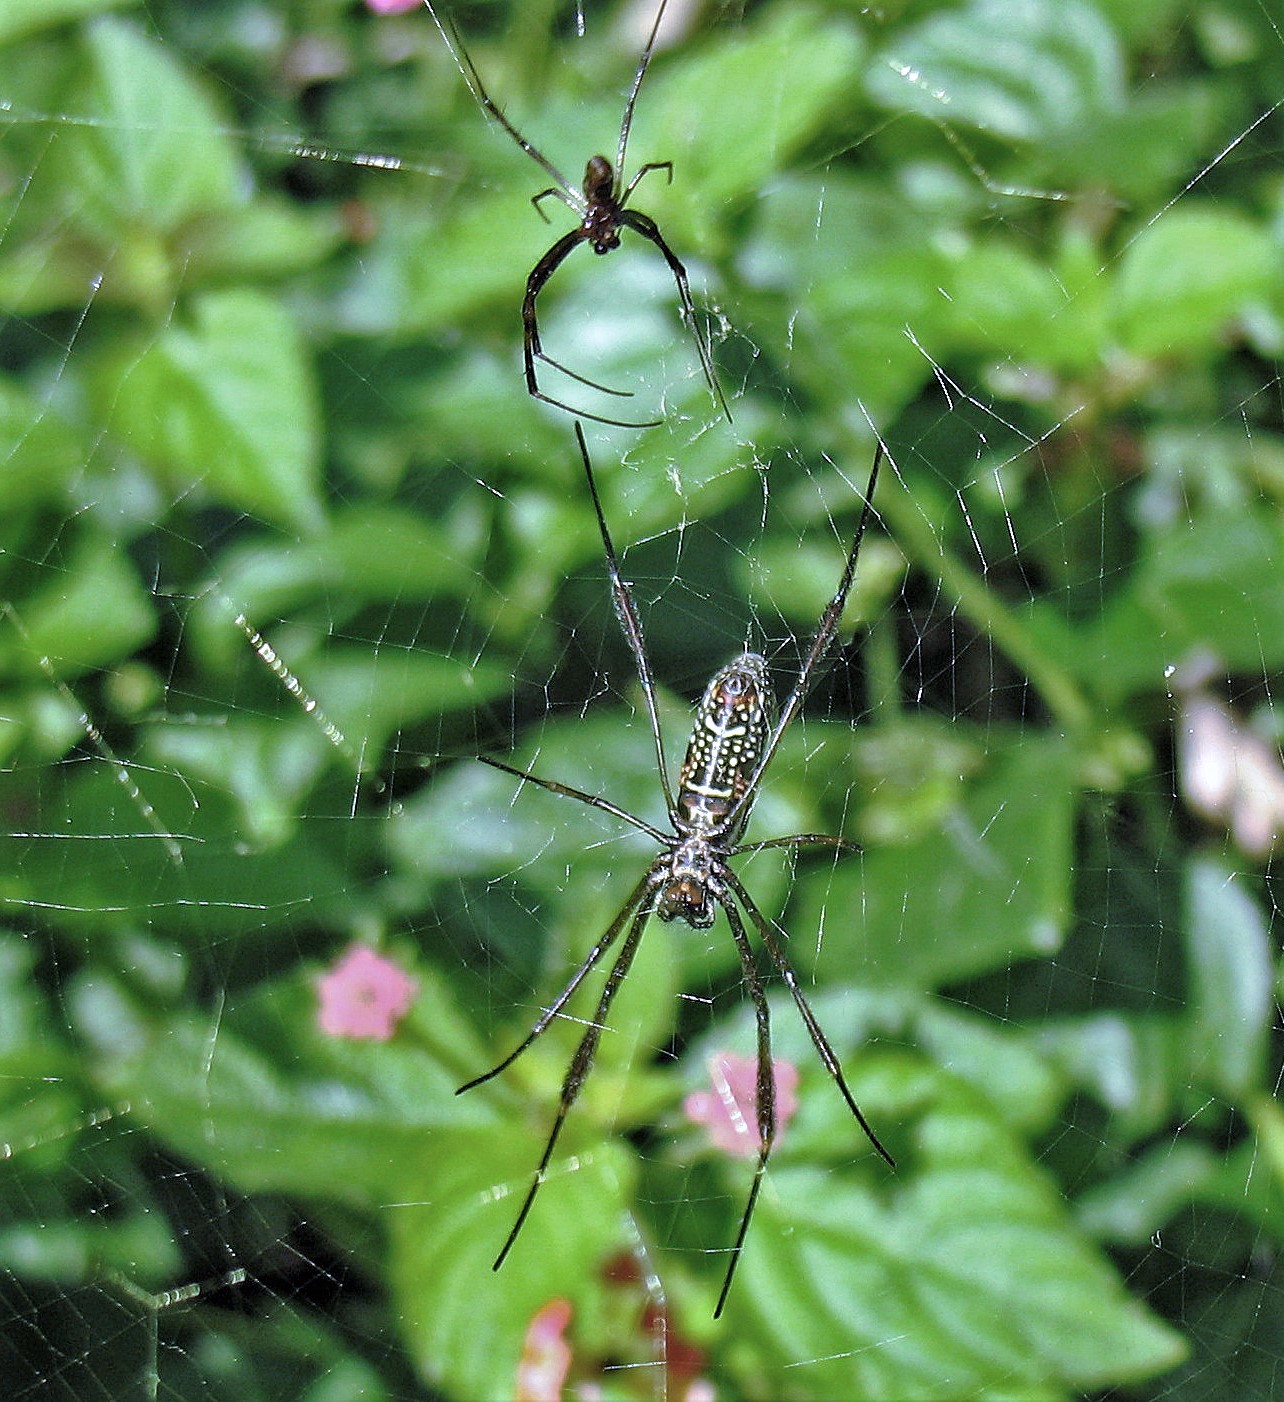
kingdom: Animalia
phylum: Arthropoda
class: Arachnida
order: Araneae
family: Araneidae
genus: Trichonephila
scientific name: Trichonephila clavipes
